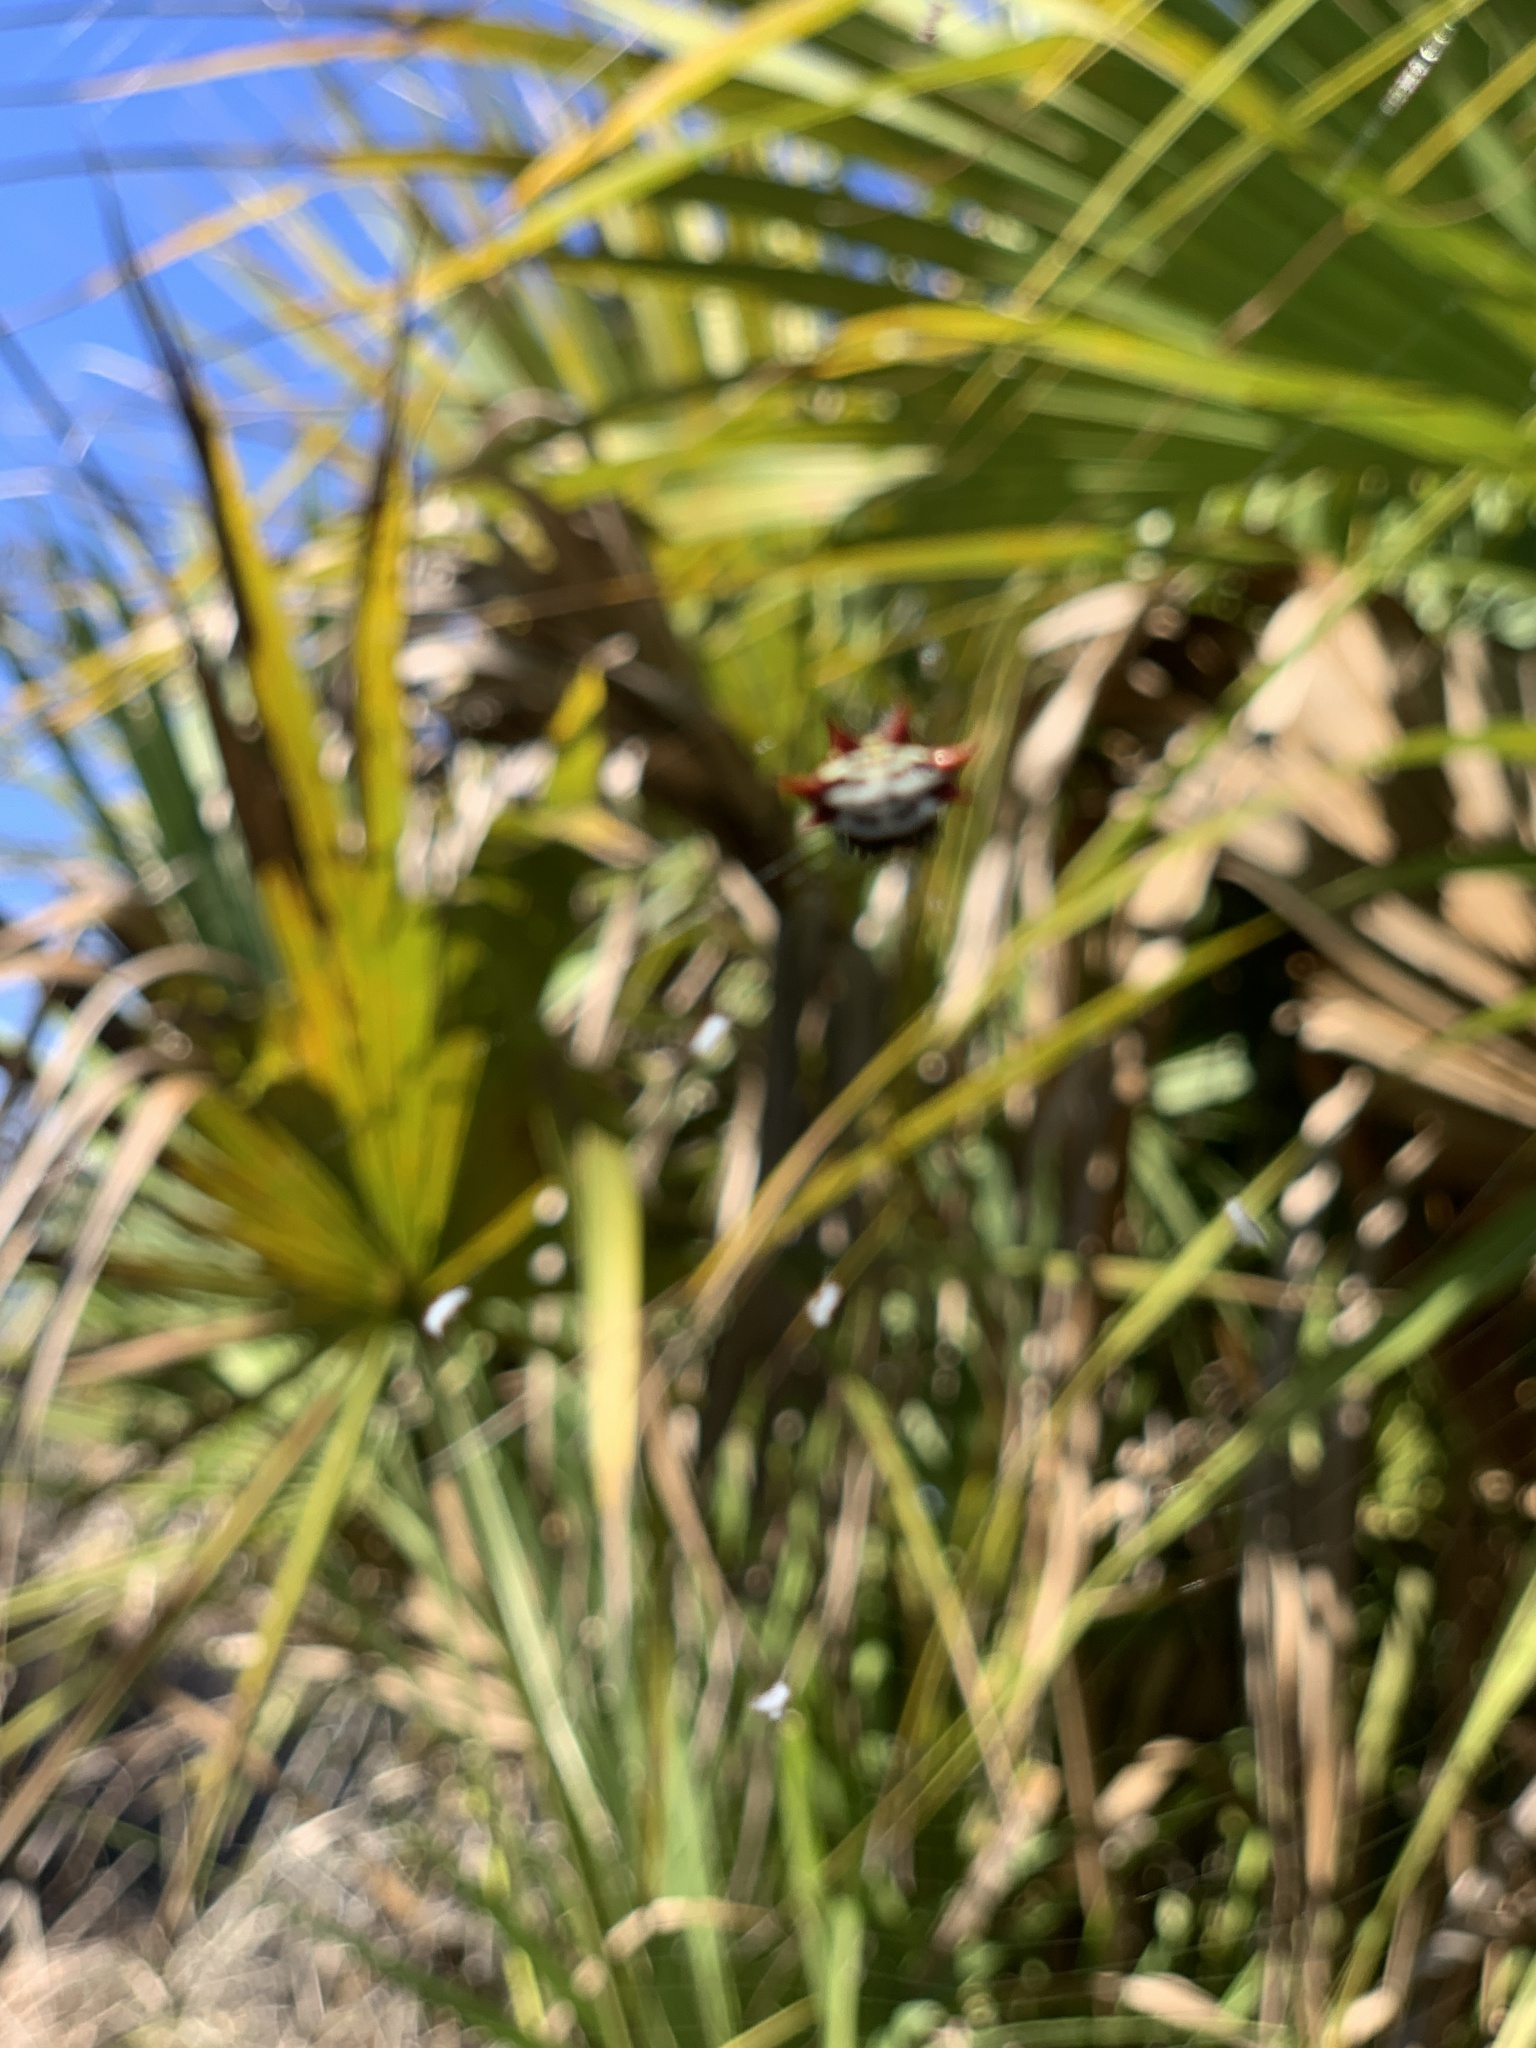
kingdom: Animalia
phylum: Arthropoda
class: Arachnida
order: Araneae
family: Araneidae
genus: Gasteracantha
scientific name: Gasteracantha cancriformis
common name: Orb weavers
